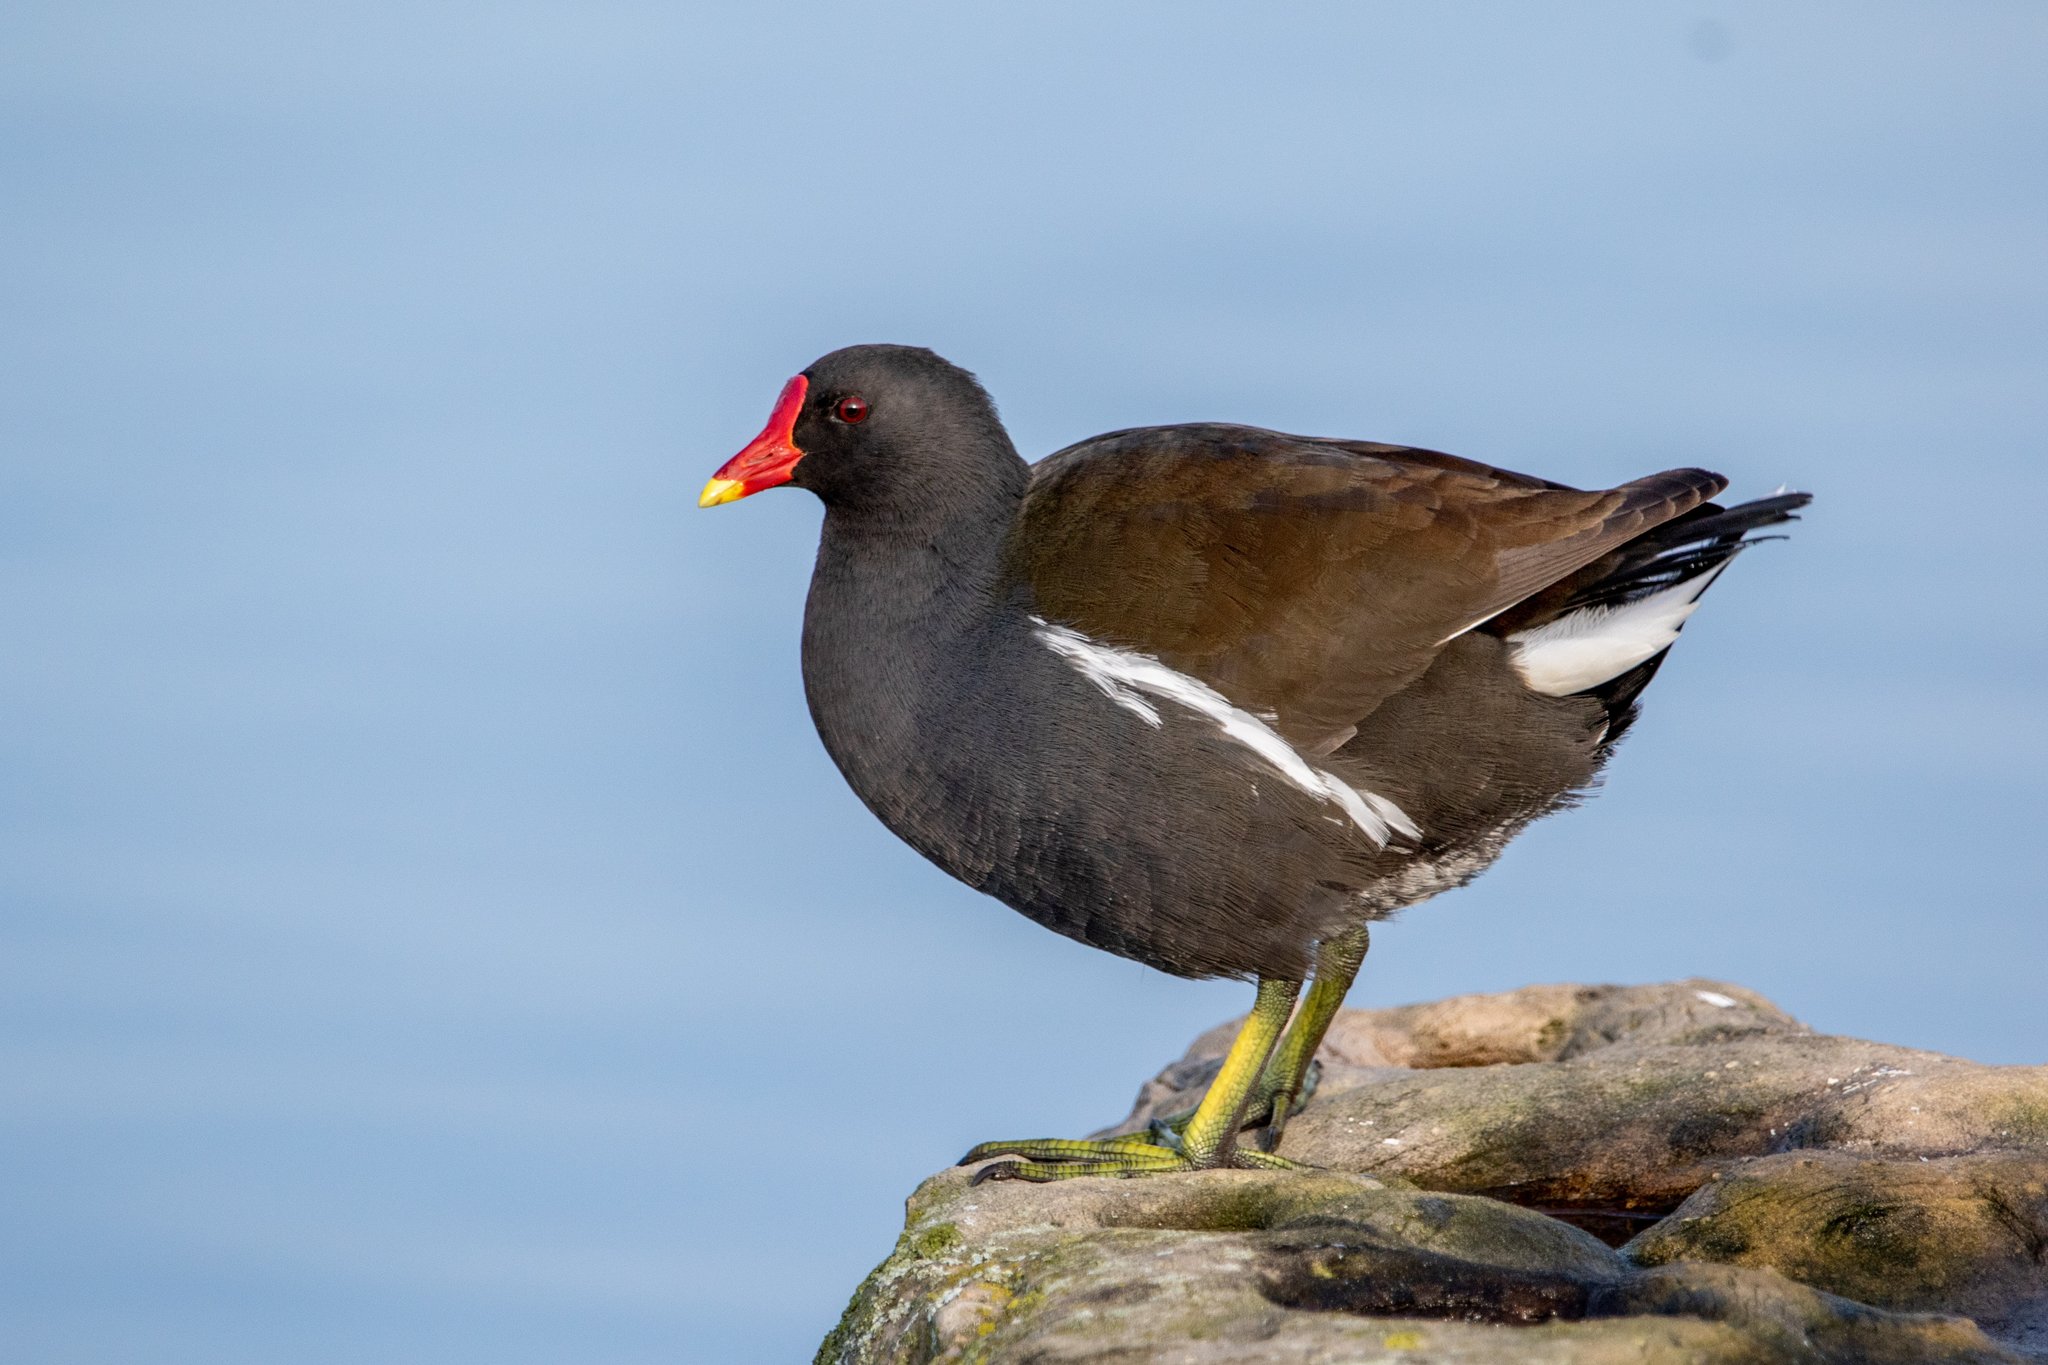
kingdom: Animalia
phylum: Chordata
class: Aves
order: Gruiformes
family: Rallidae
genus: Gallinula
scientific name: Gallinula chloropus
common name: Common moorhen
